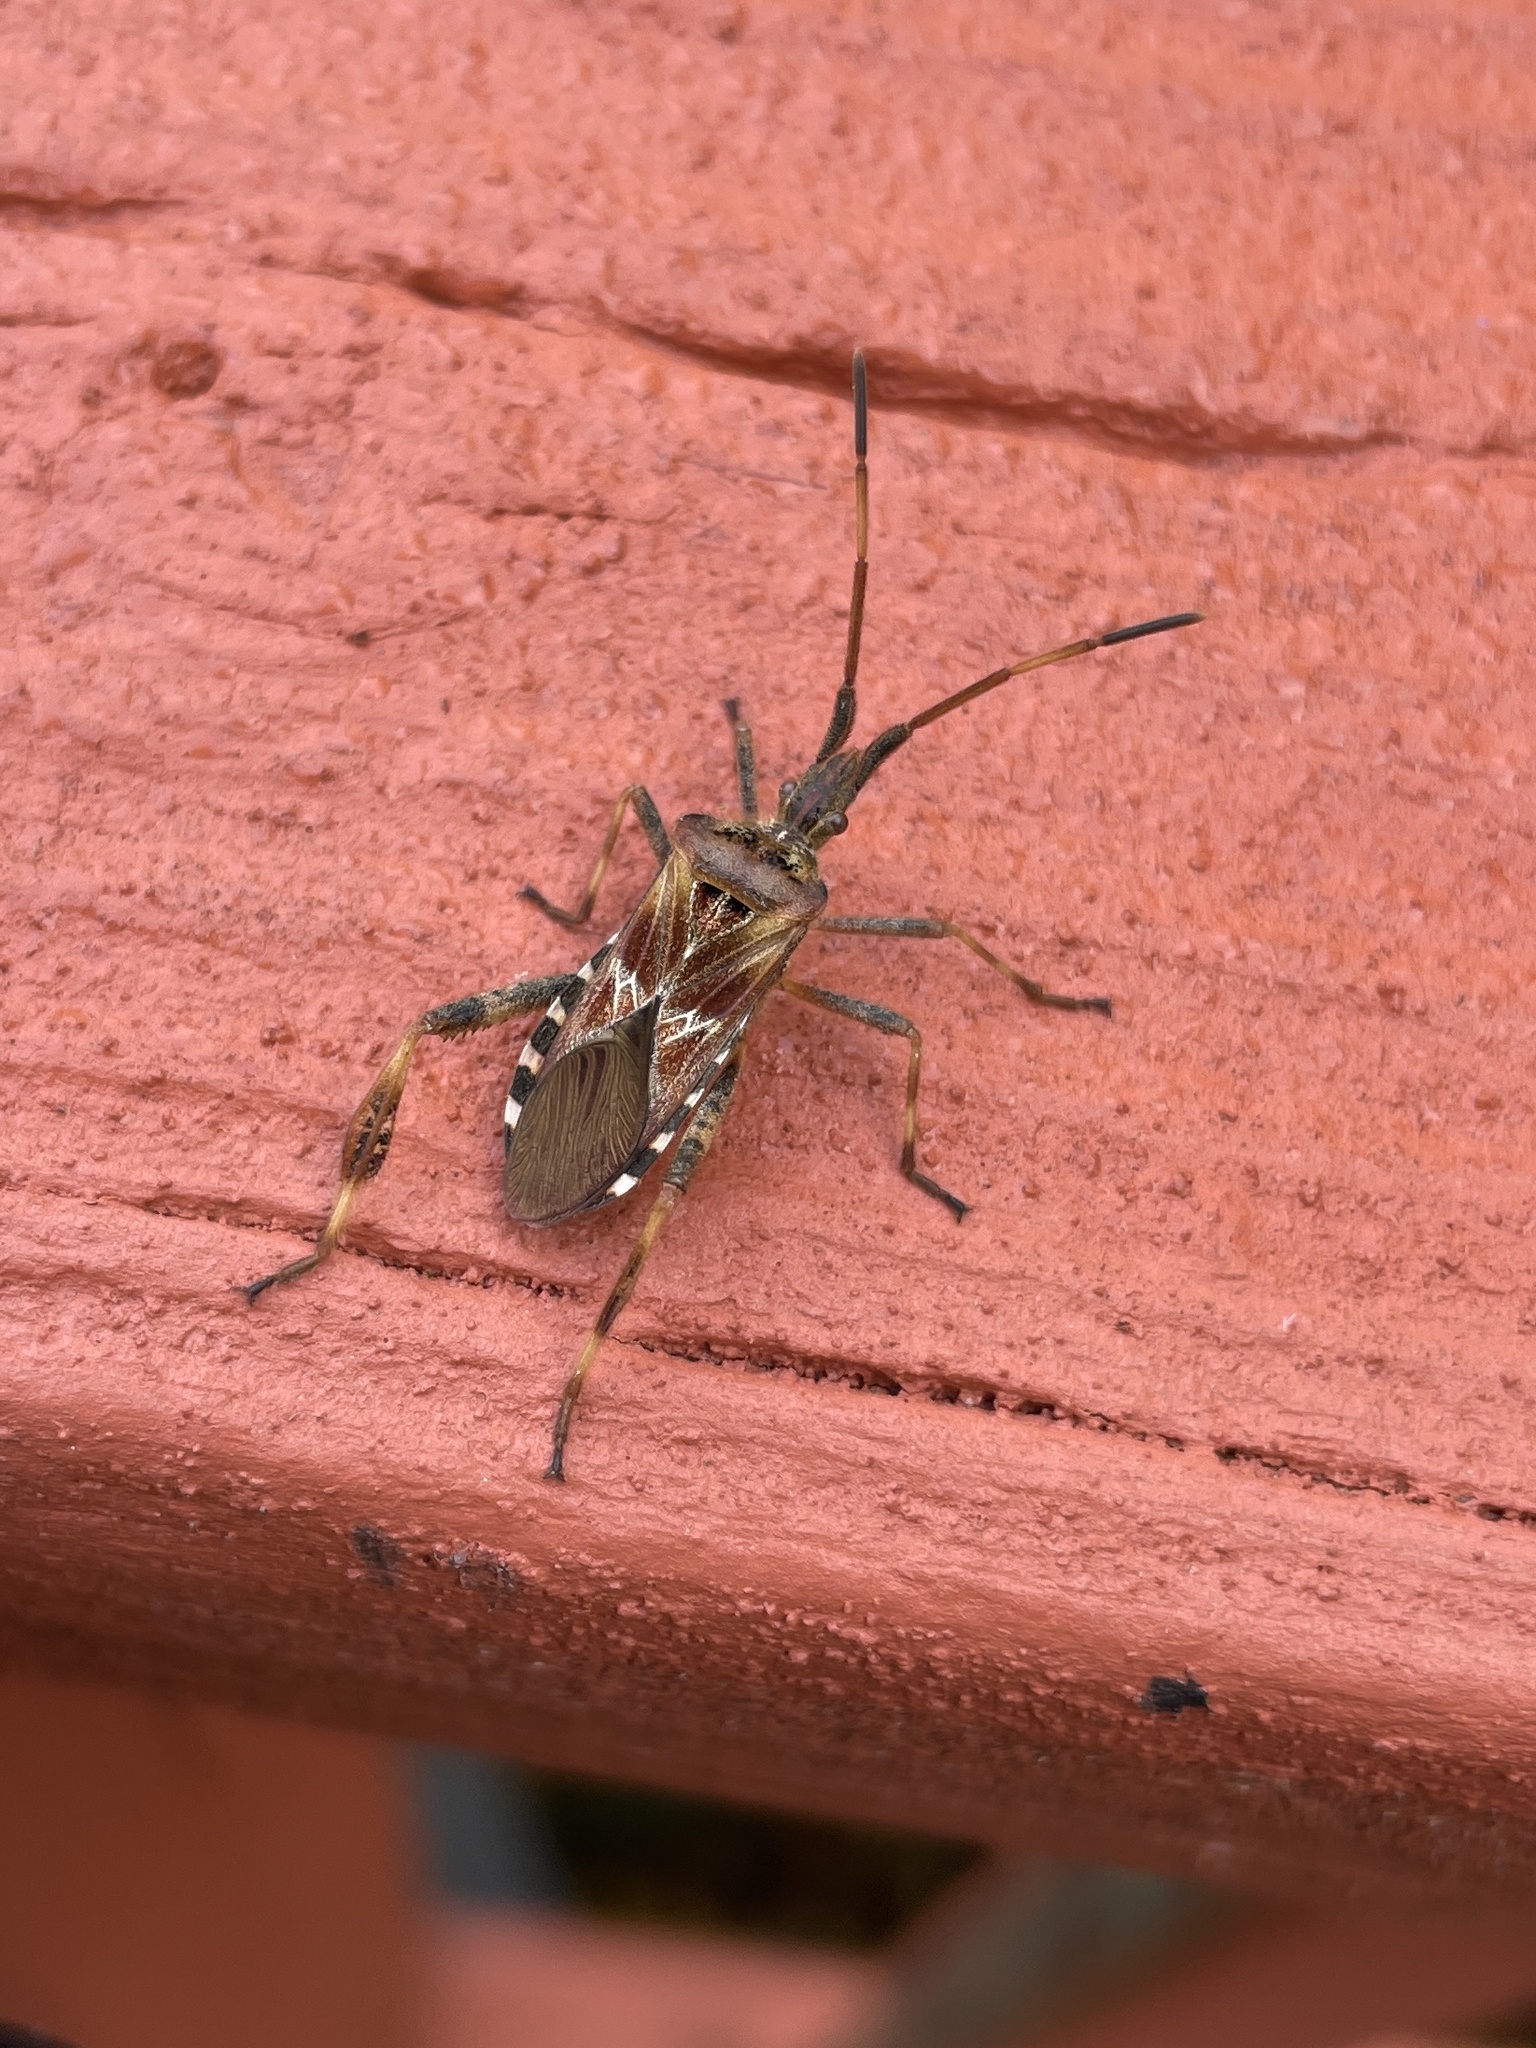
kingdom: Animalia
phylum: Arthropoda
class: Insecta
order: Hemiptera
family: Coreidae
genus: Leptoglossus
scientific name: Leptoglossus occidentalis
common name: Western conifer-seed bug
